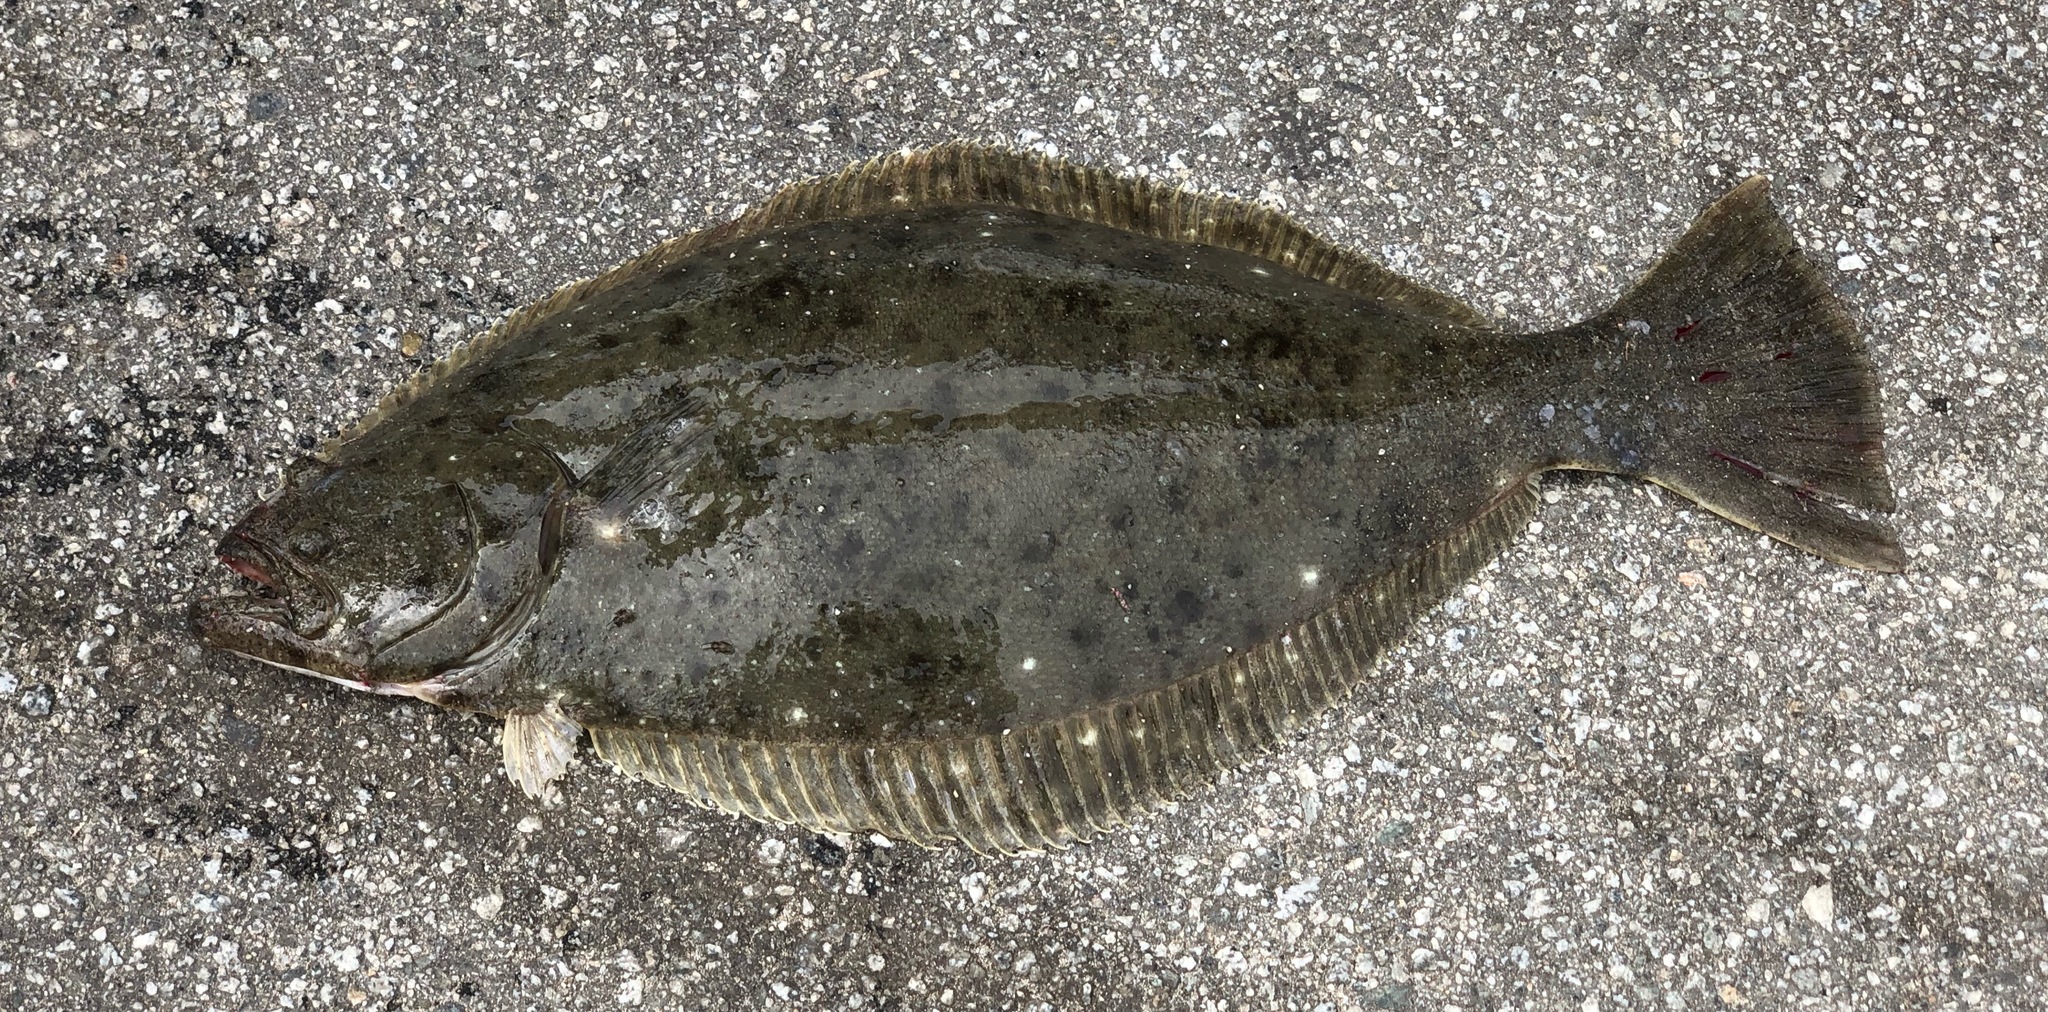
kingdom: Animalia
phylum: Chordata
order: Pleuronectiformes
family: Paralichthyidae
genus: Paralichthys
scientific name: Paralichthys californicus
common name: California halibut
